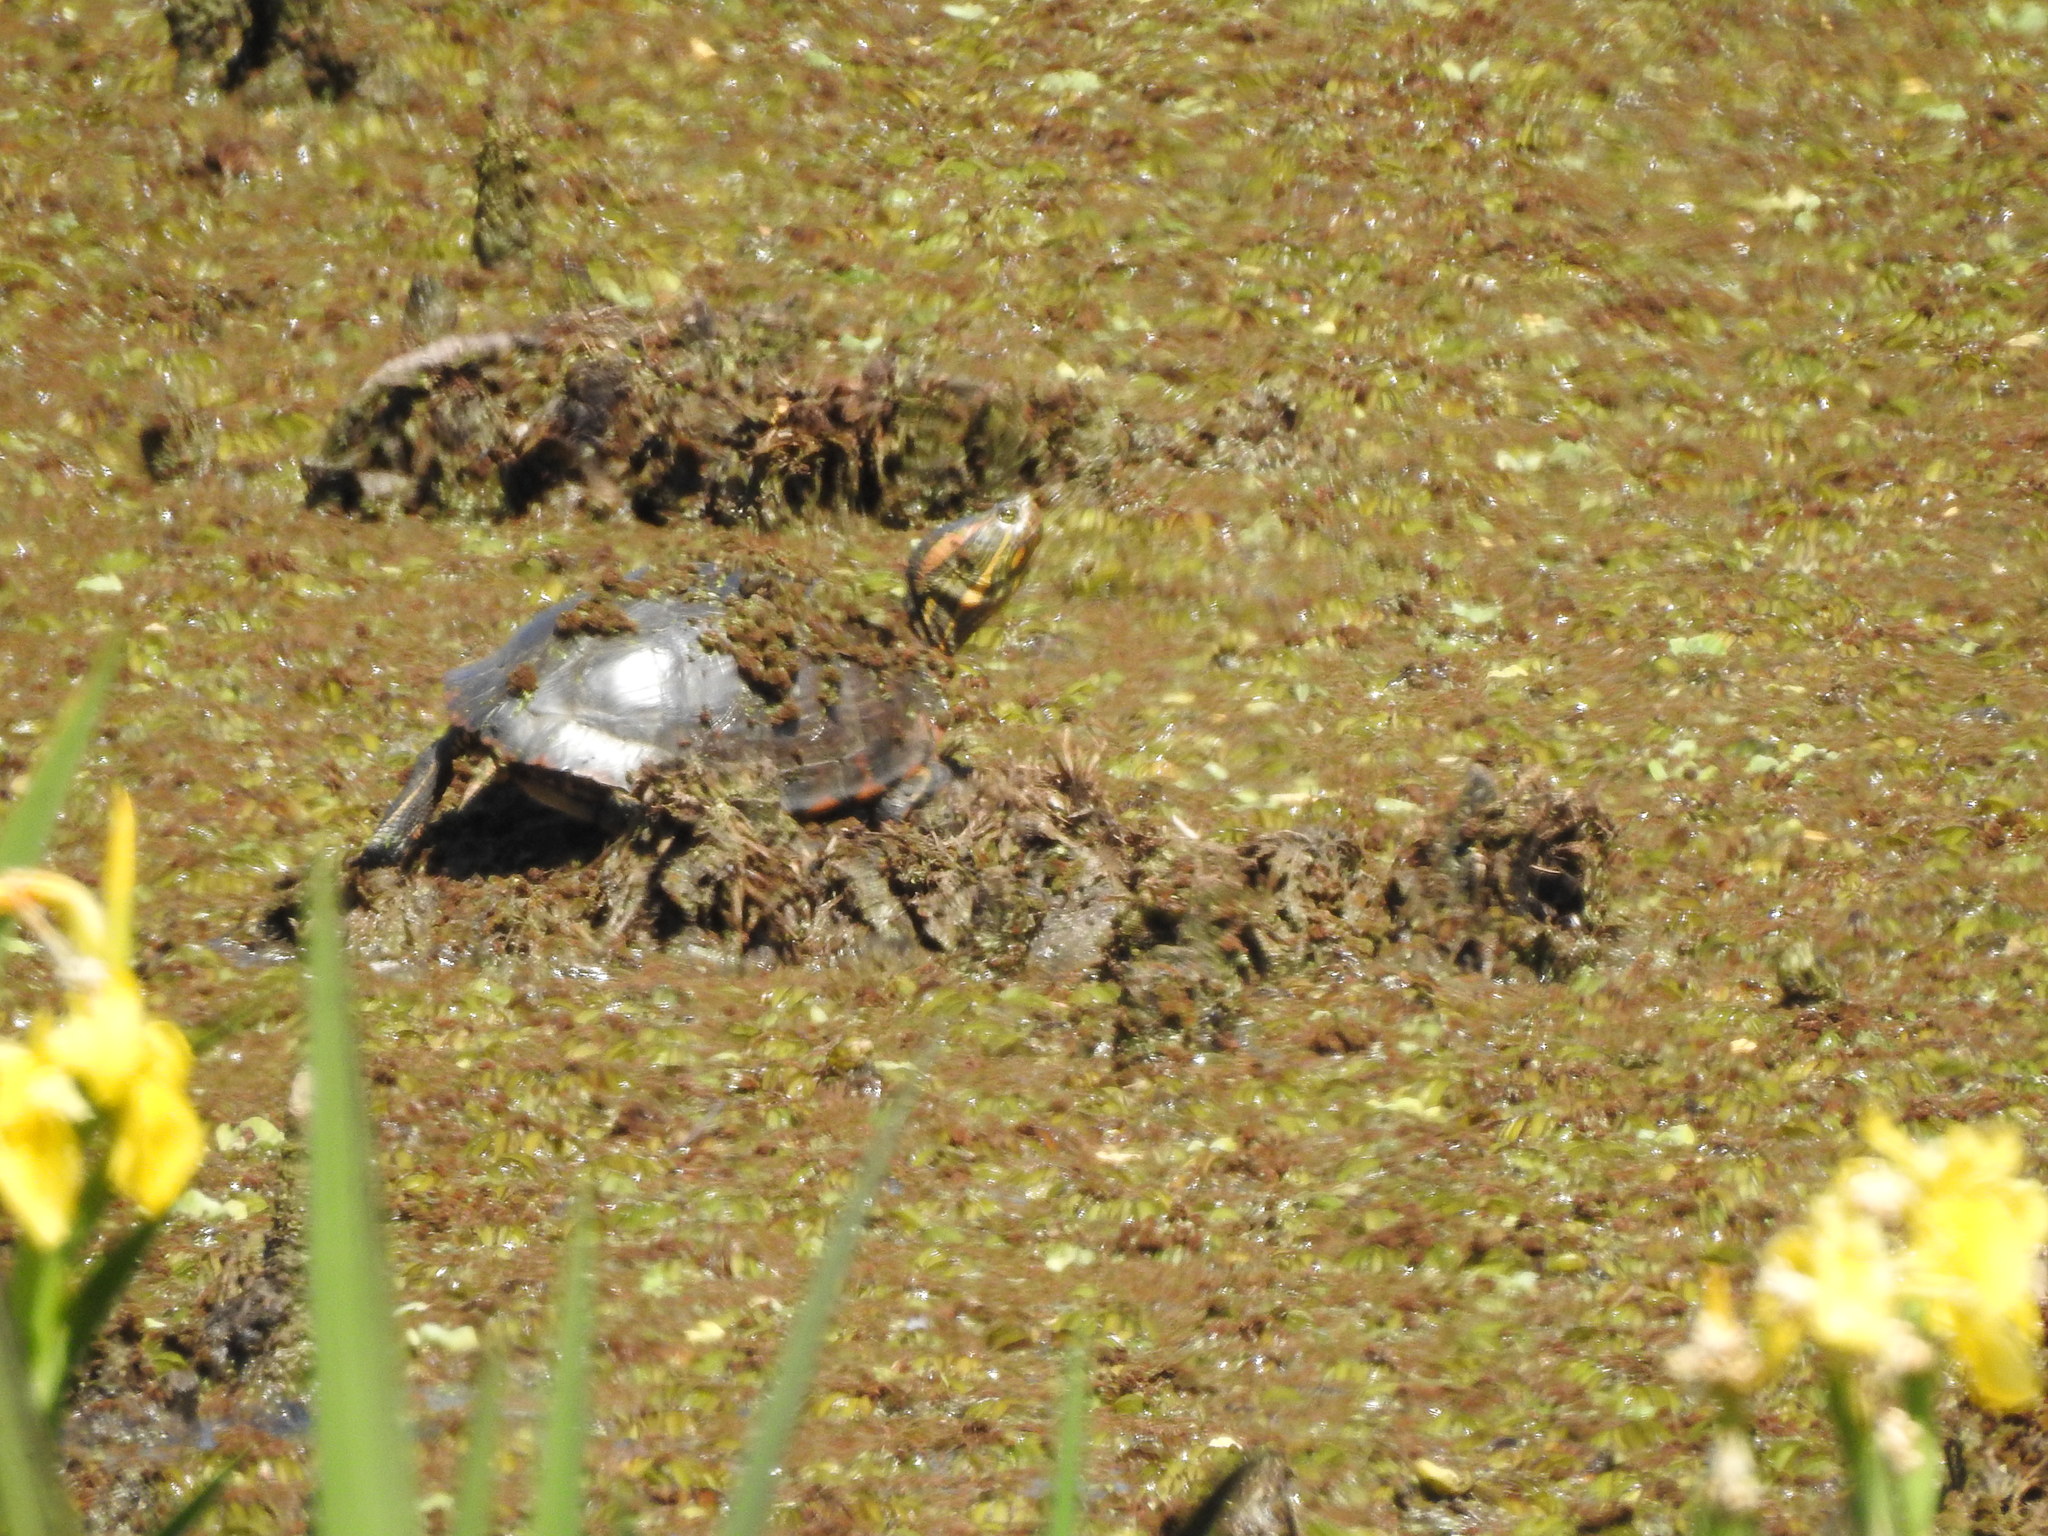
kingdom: Animalia
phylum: Chordata
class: Testudines
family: Emydidae
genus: Trachemys
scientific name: Trachemys dorbigni
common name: Black-bellied slider
